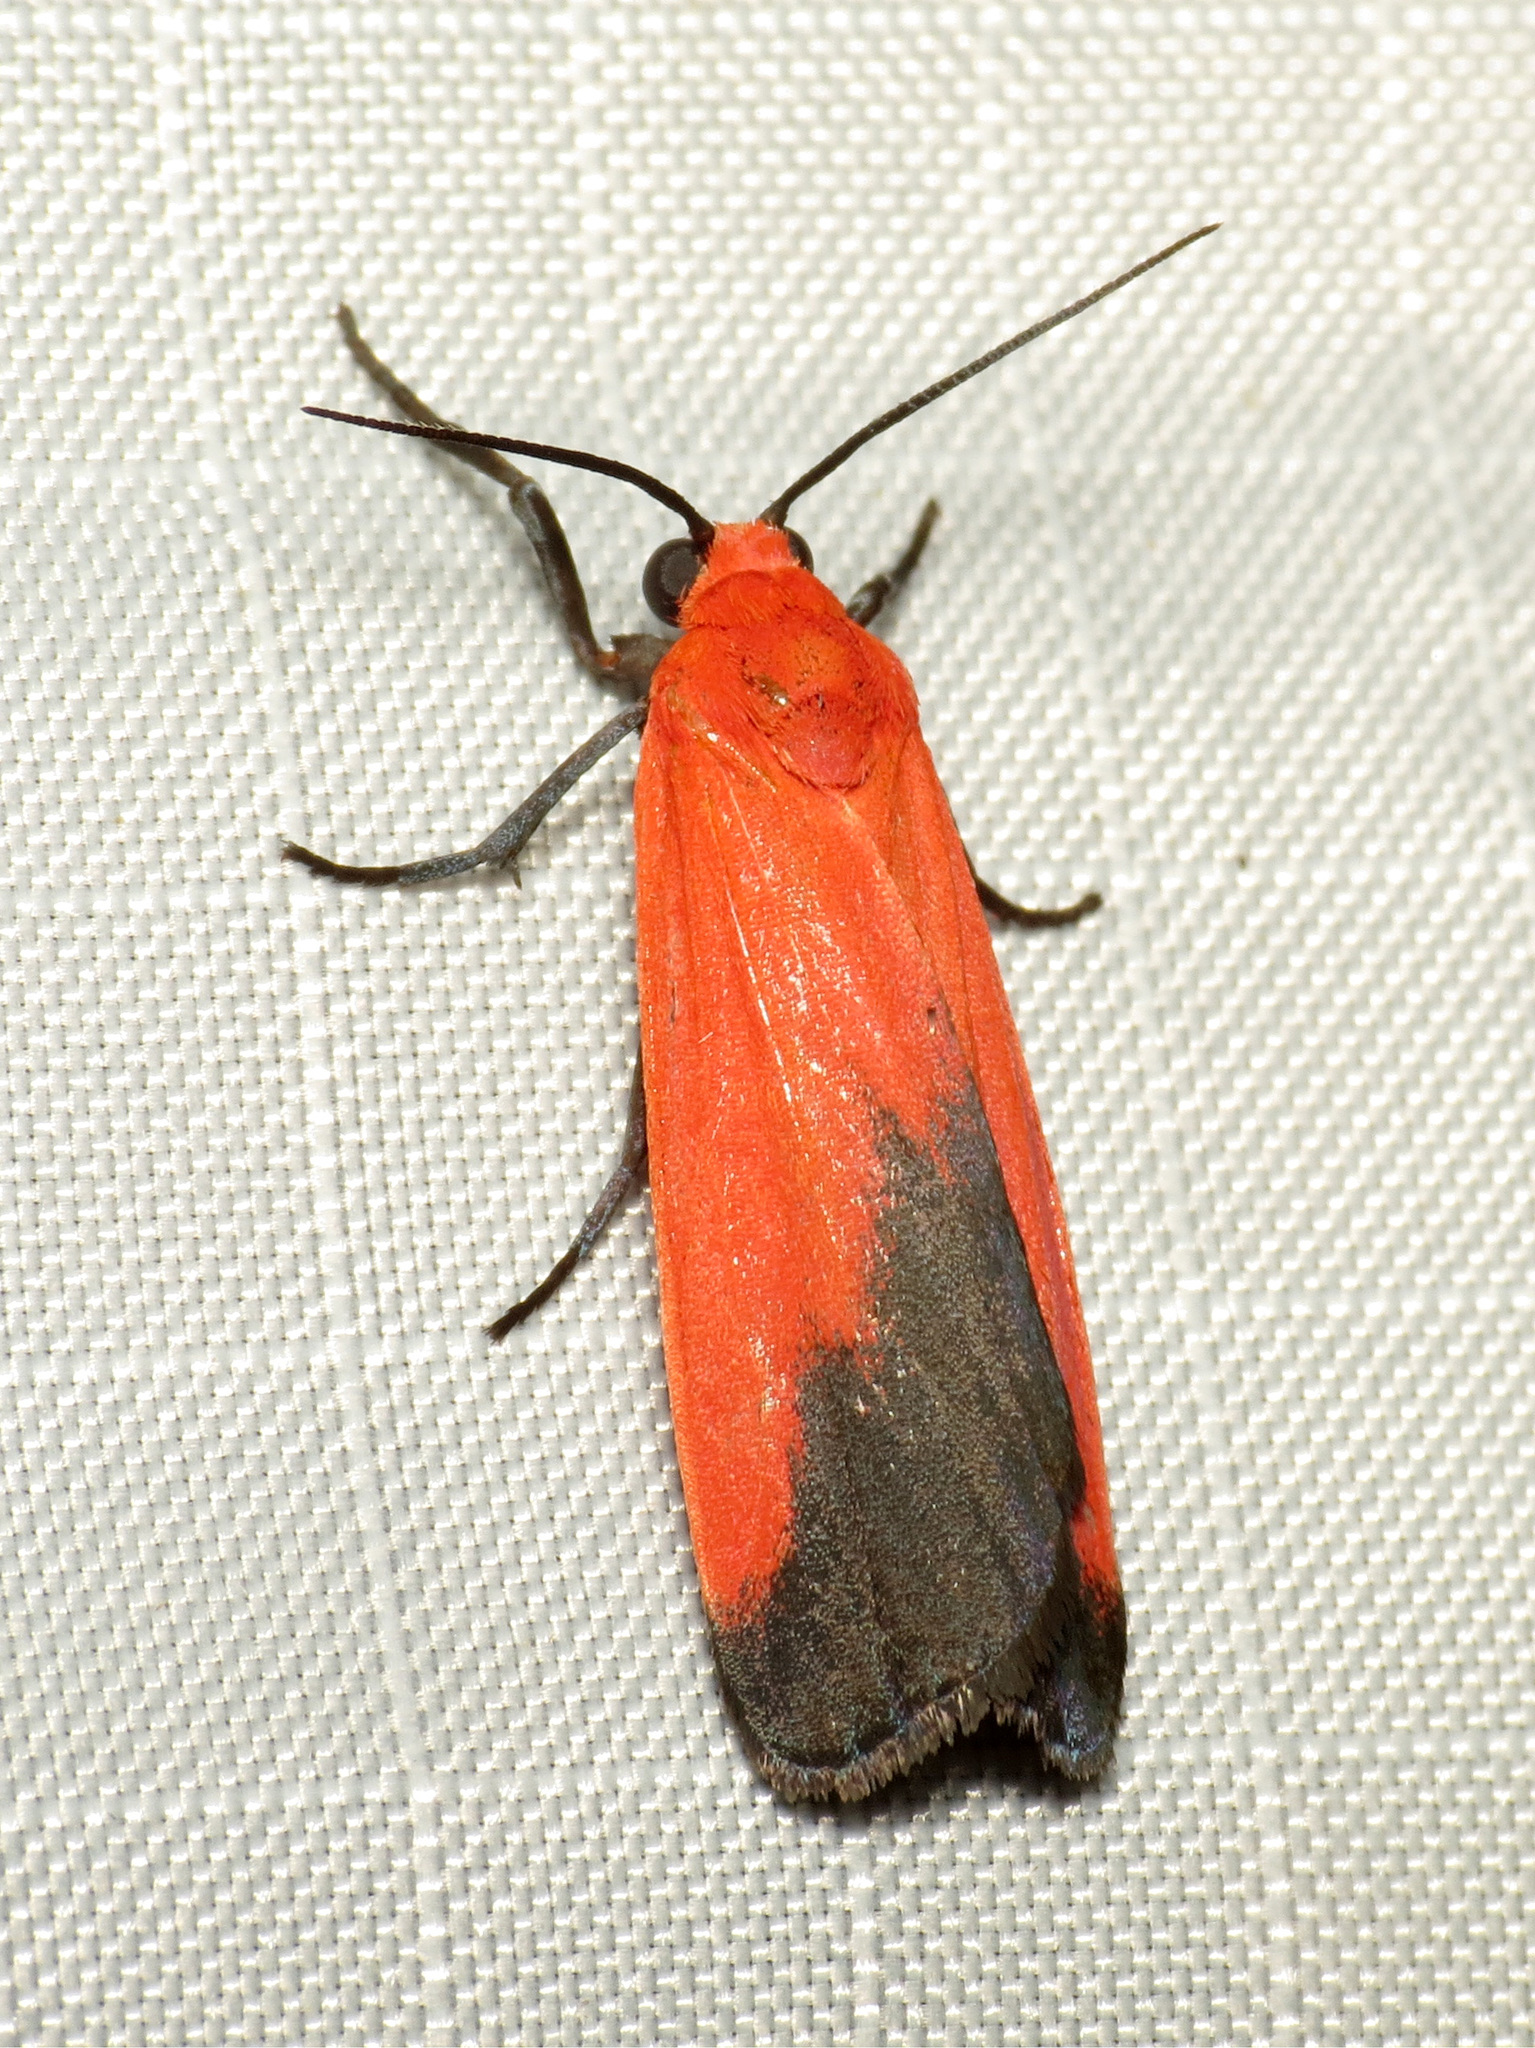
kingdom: Animalia
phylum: Arthropoda
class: Insecta
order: Lepidoptera
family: Erebidae
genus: Ptychoglene
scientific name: Ptychoglene coccinea
